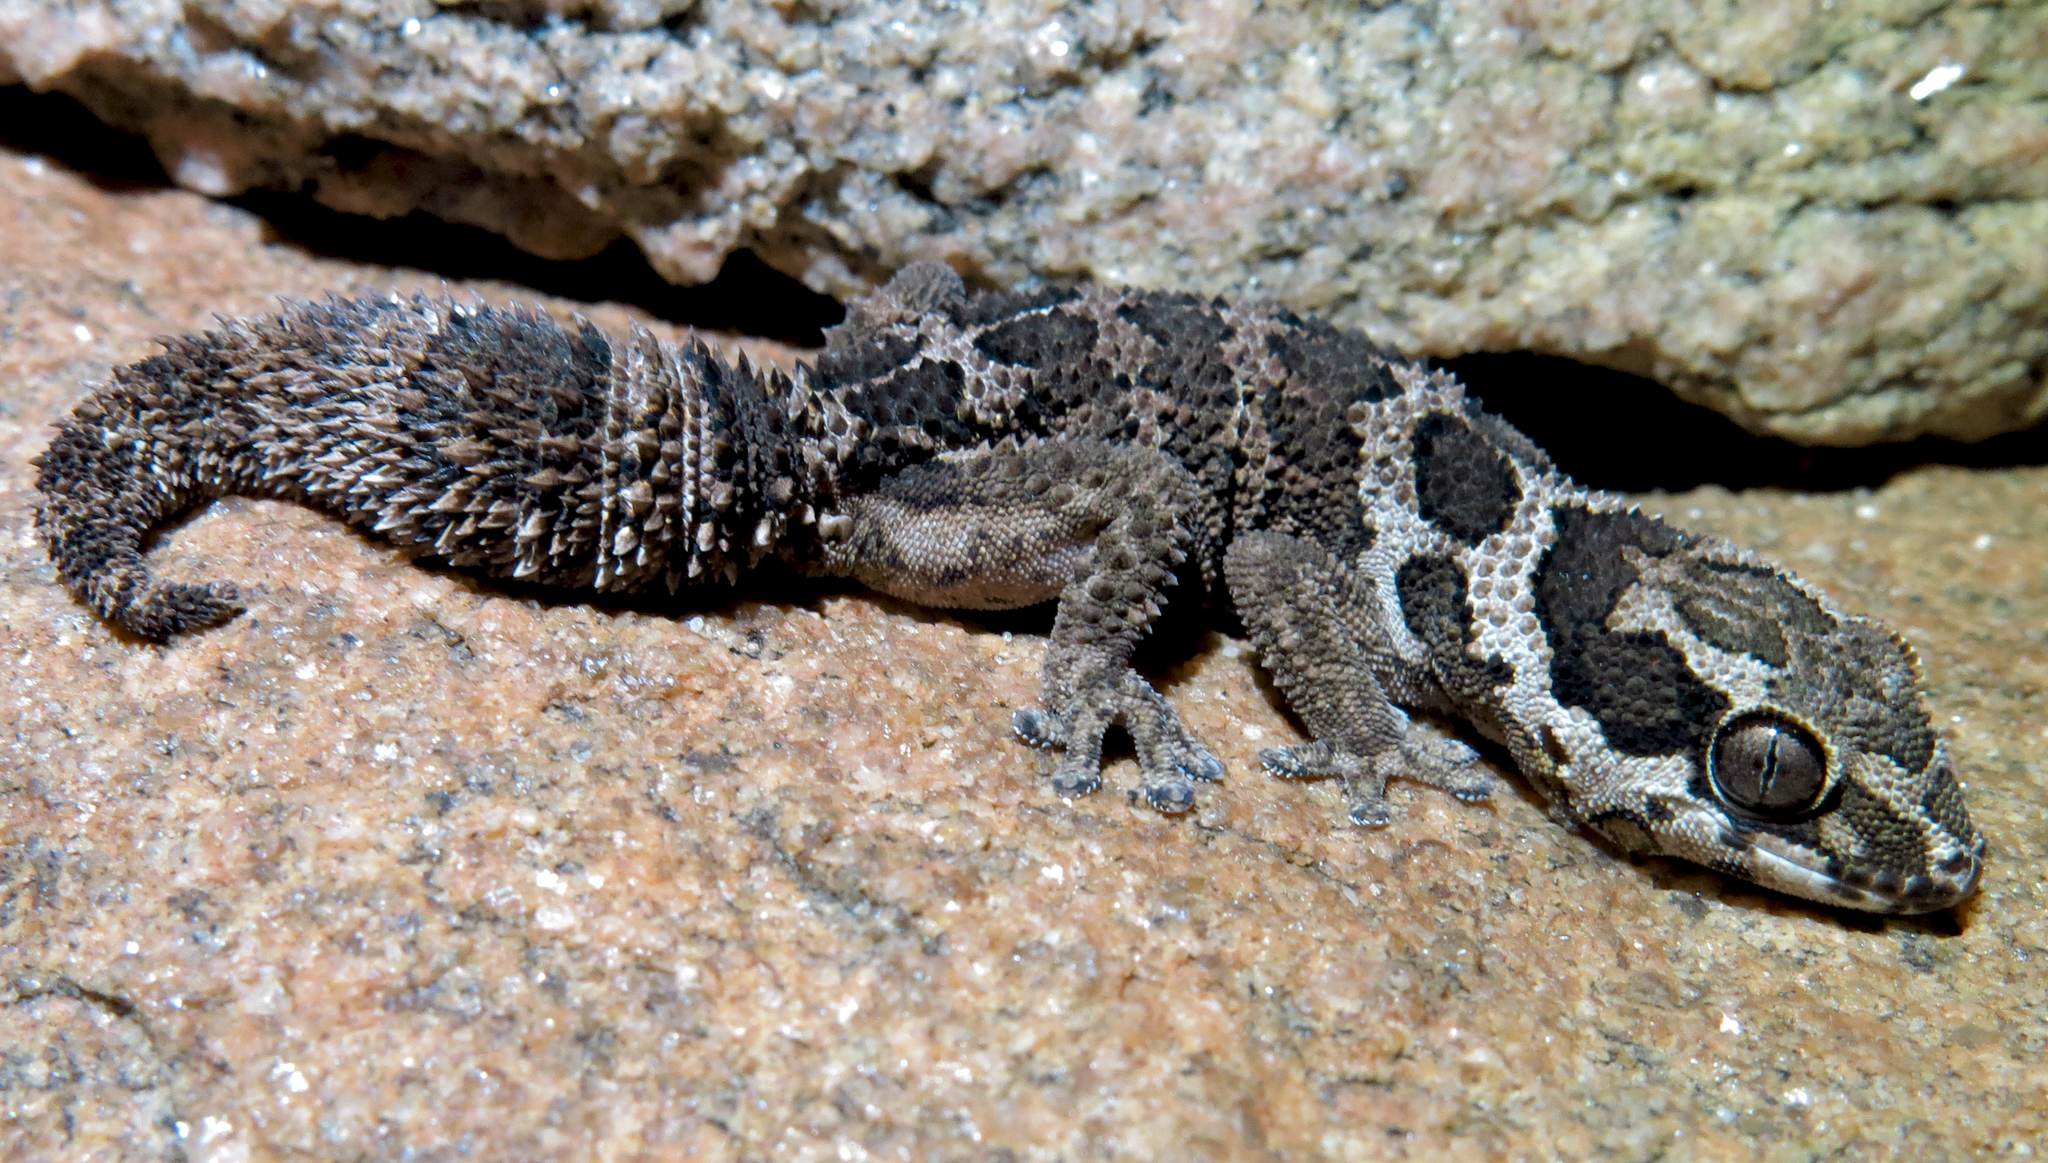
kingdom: Animalia
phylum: Chordata
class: Squamata
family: Gekkonidae
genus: Pachydactylus
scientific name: Pachydactylus barnardi
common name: Barnard's rough gecko
